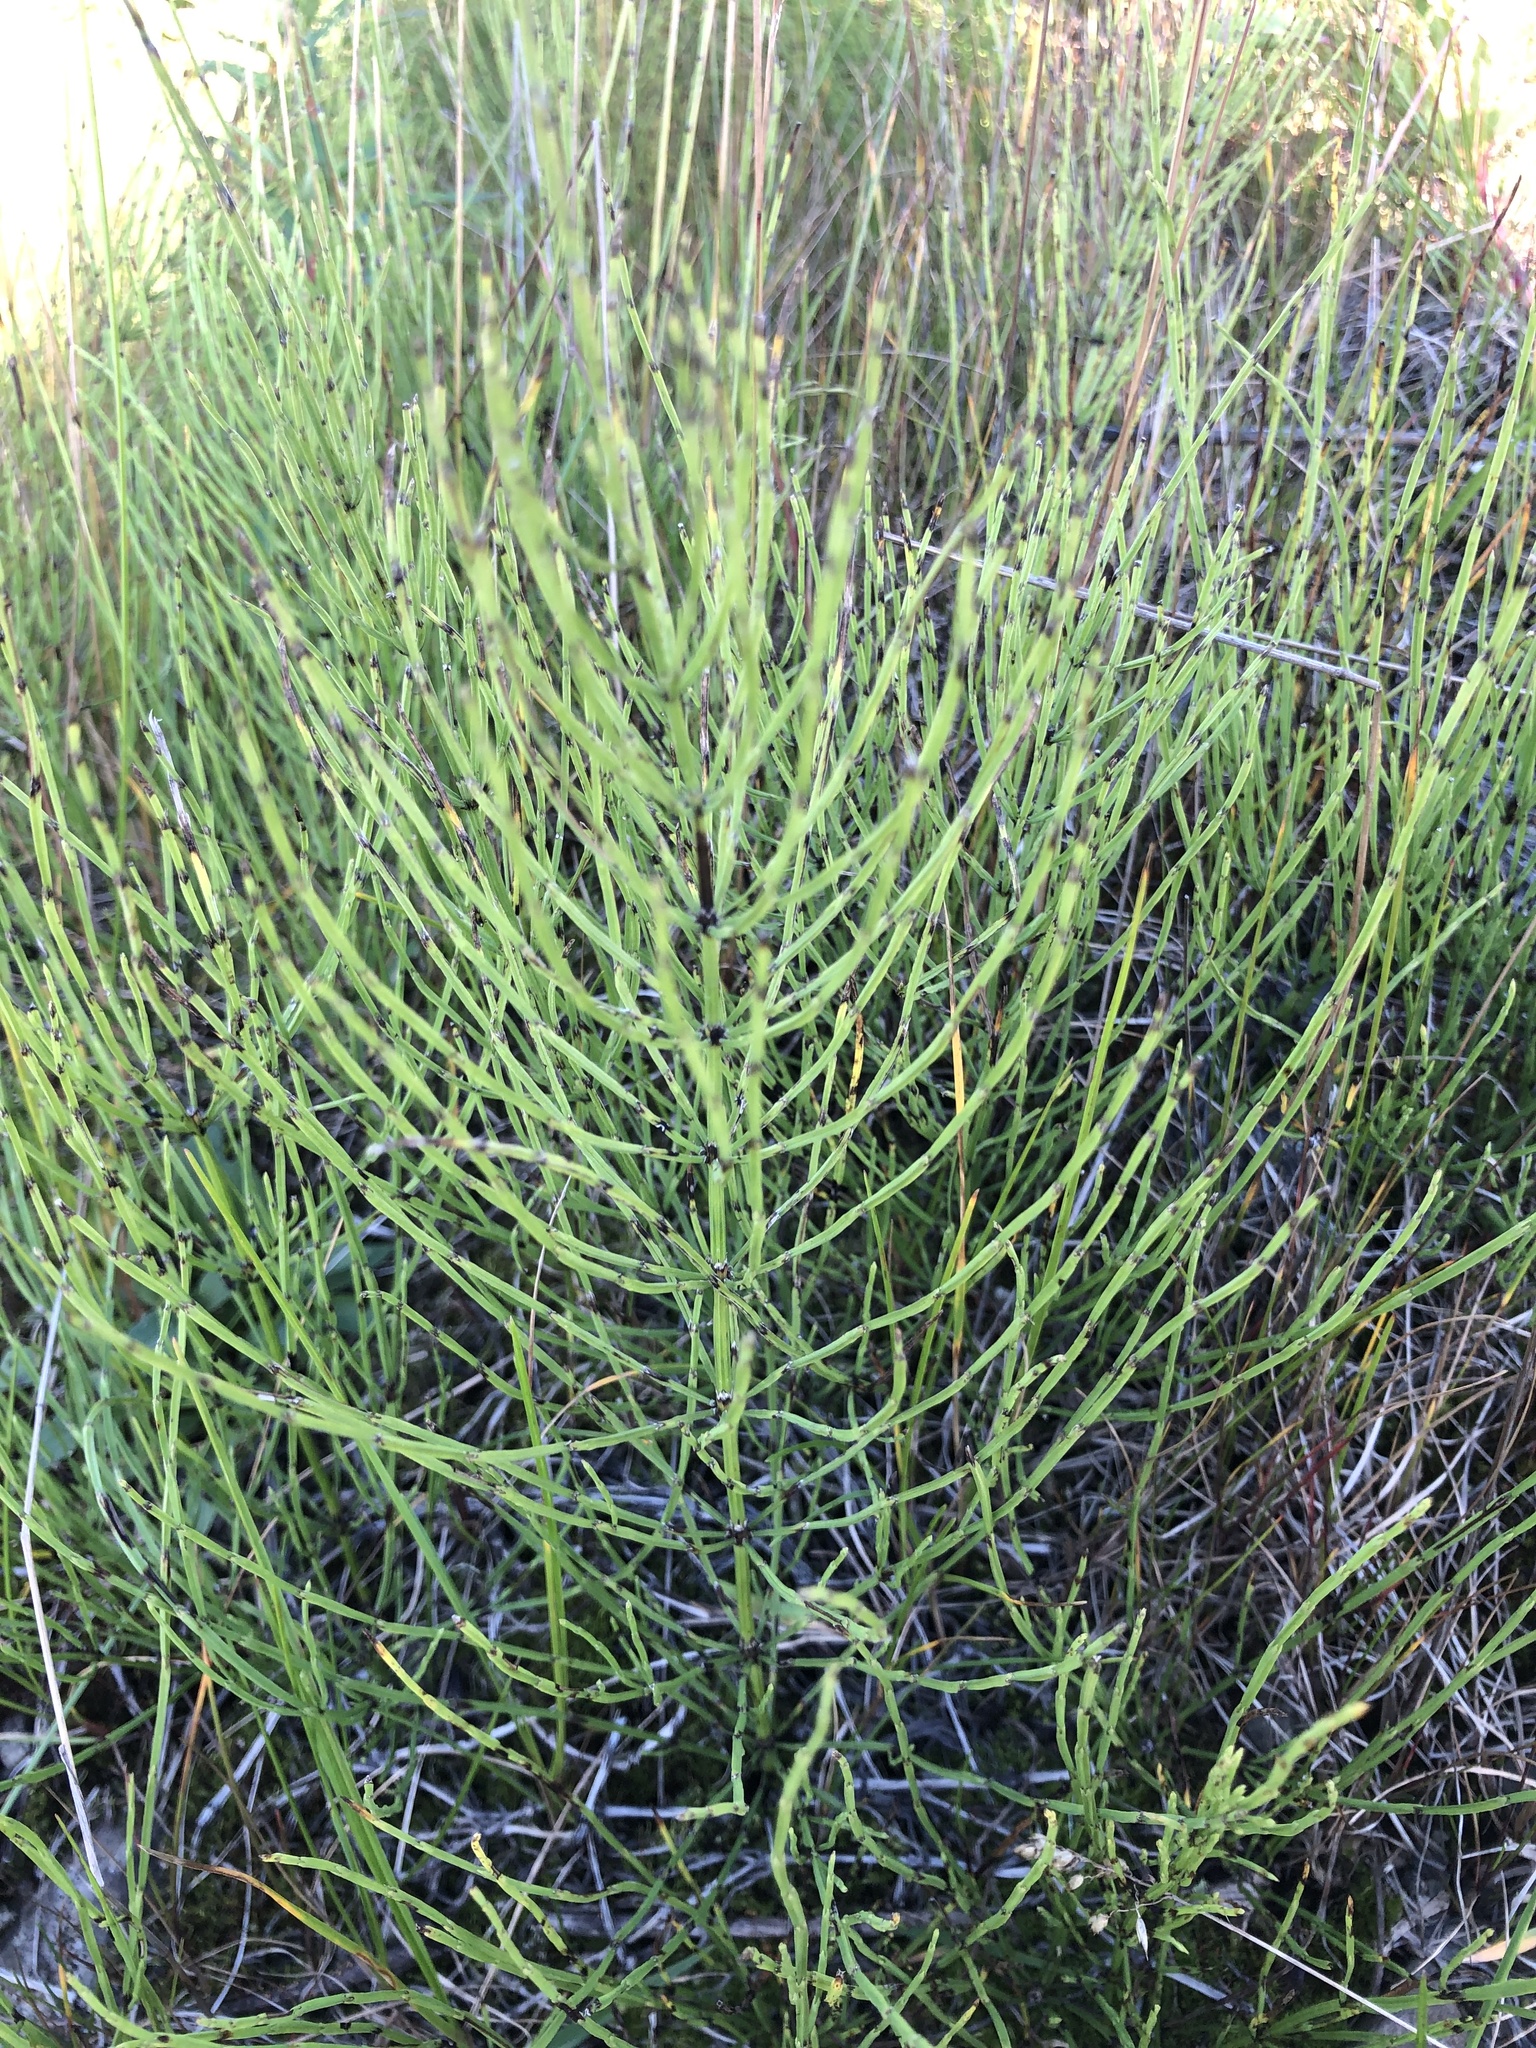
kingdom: Plantae
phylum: Tracheophyta
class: Polypodiopsida
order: Equisetales
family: Equisetaceae
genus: Equisetum
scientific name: Equisetum arvense
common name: Field horsetail
